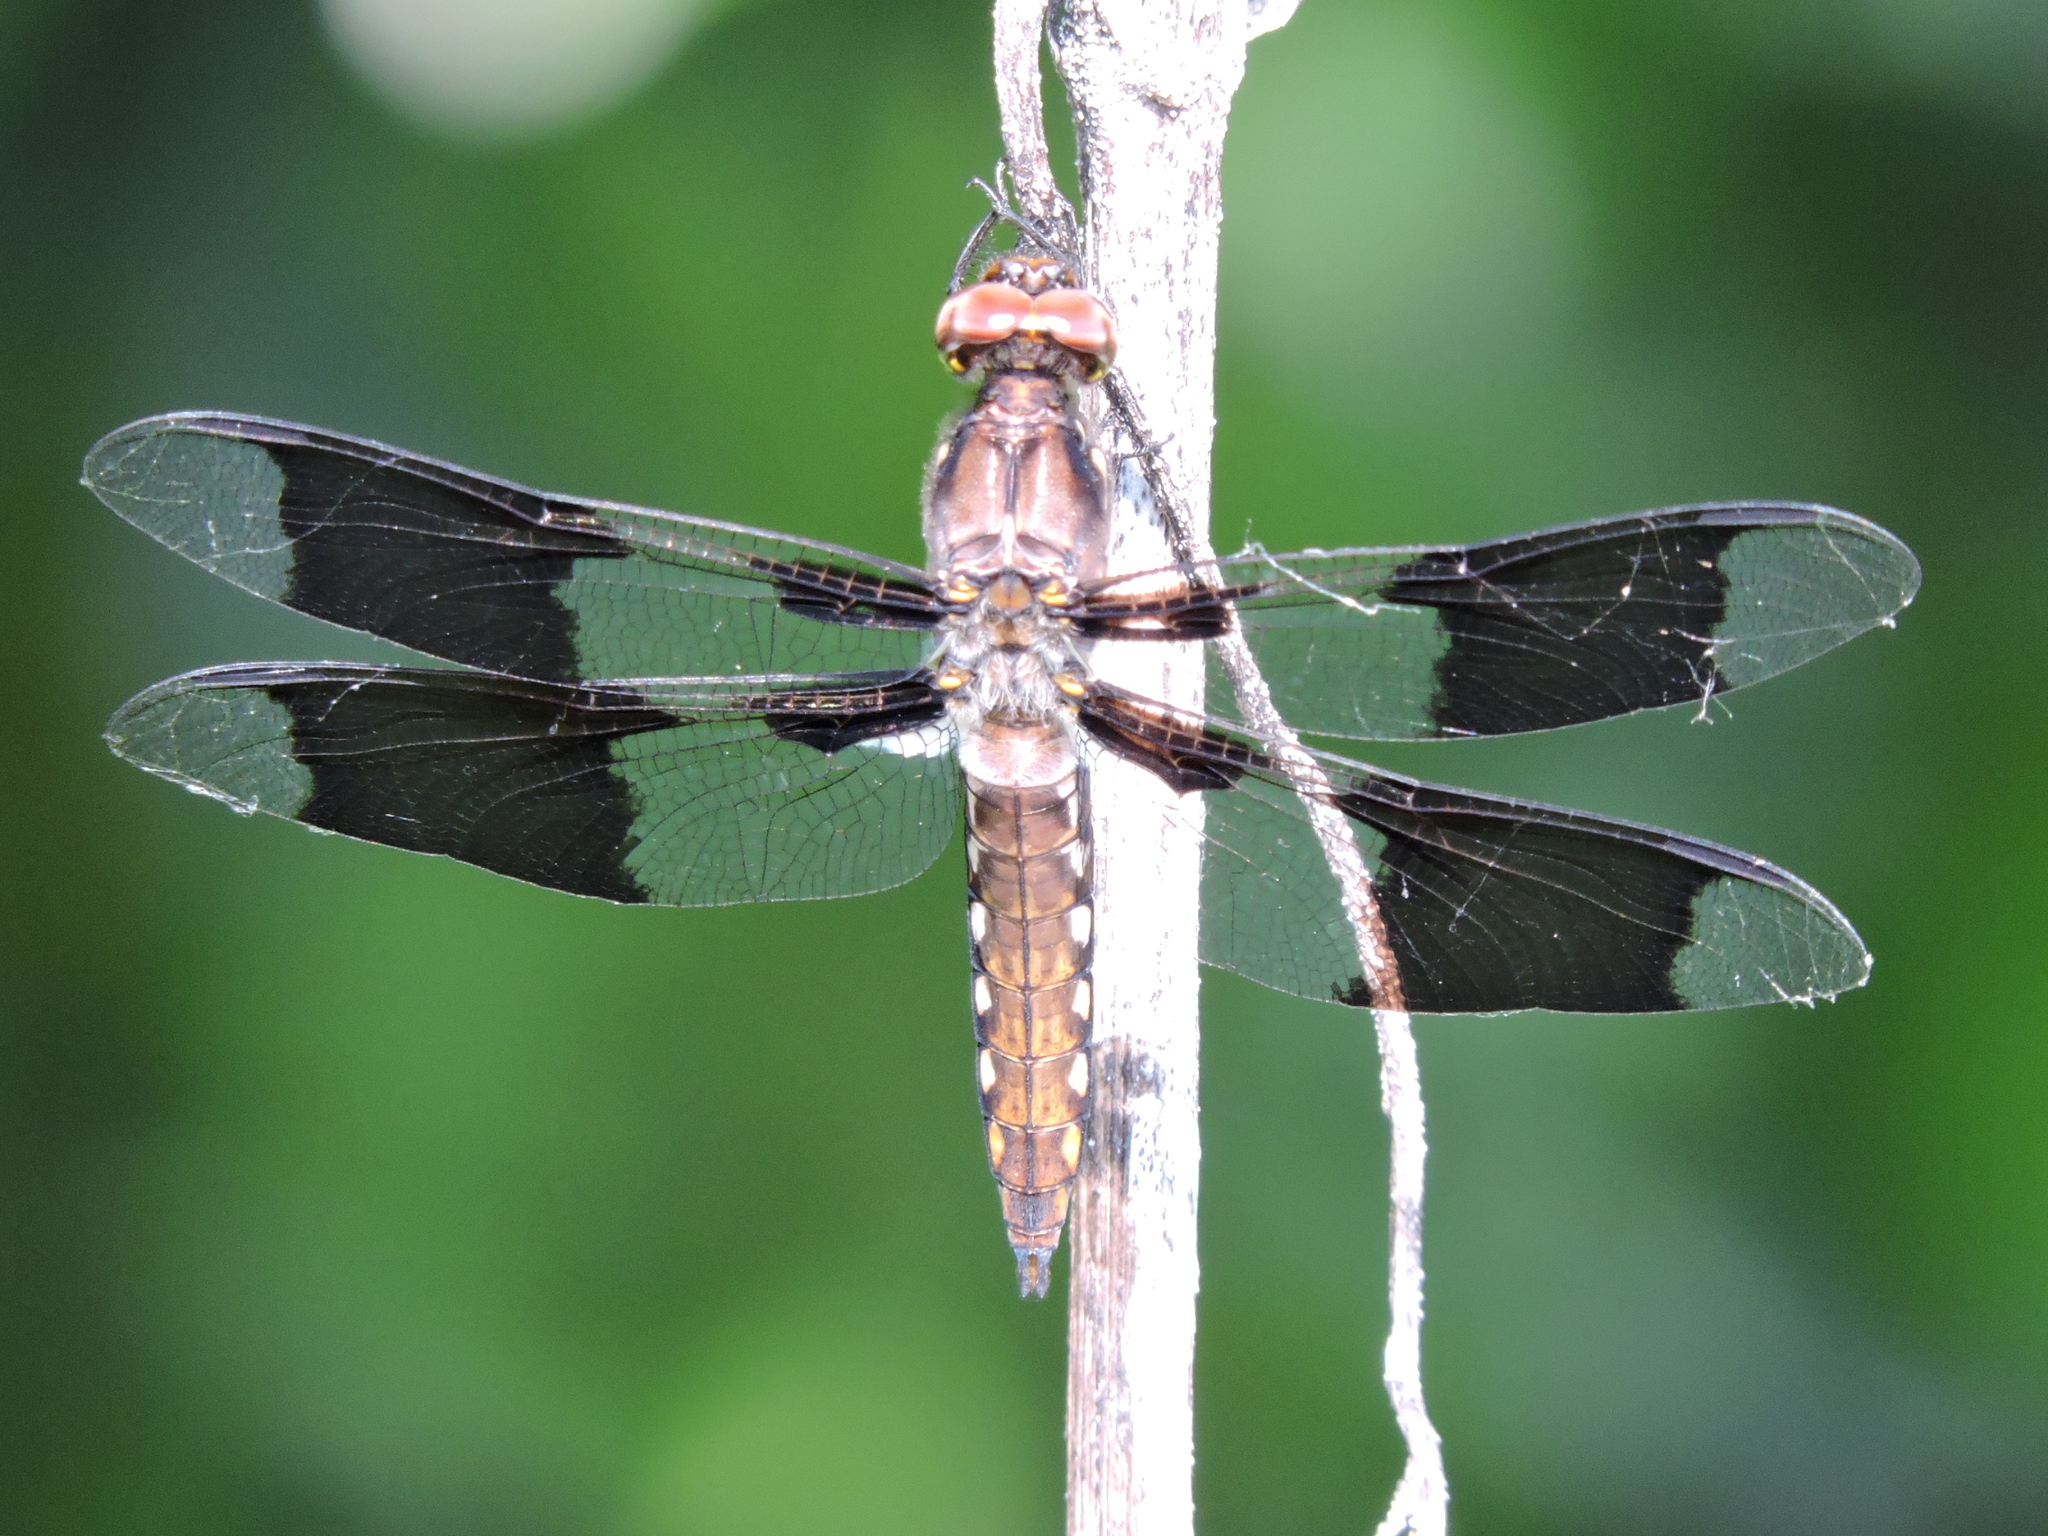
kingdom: Animalia
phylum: Arthropoda
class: Insecta
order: Odonata
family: Libellulidae
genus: Plathemis
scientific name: Plathemis lydia
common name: Common whitetail
